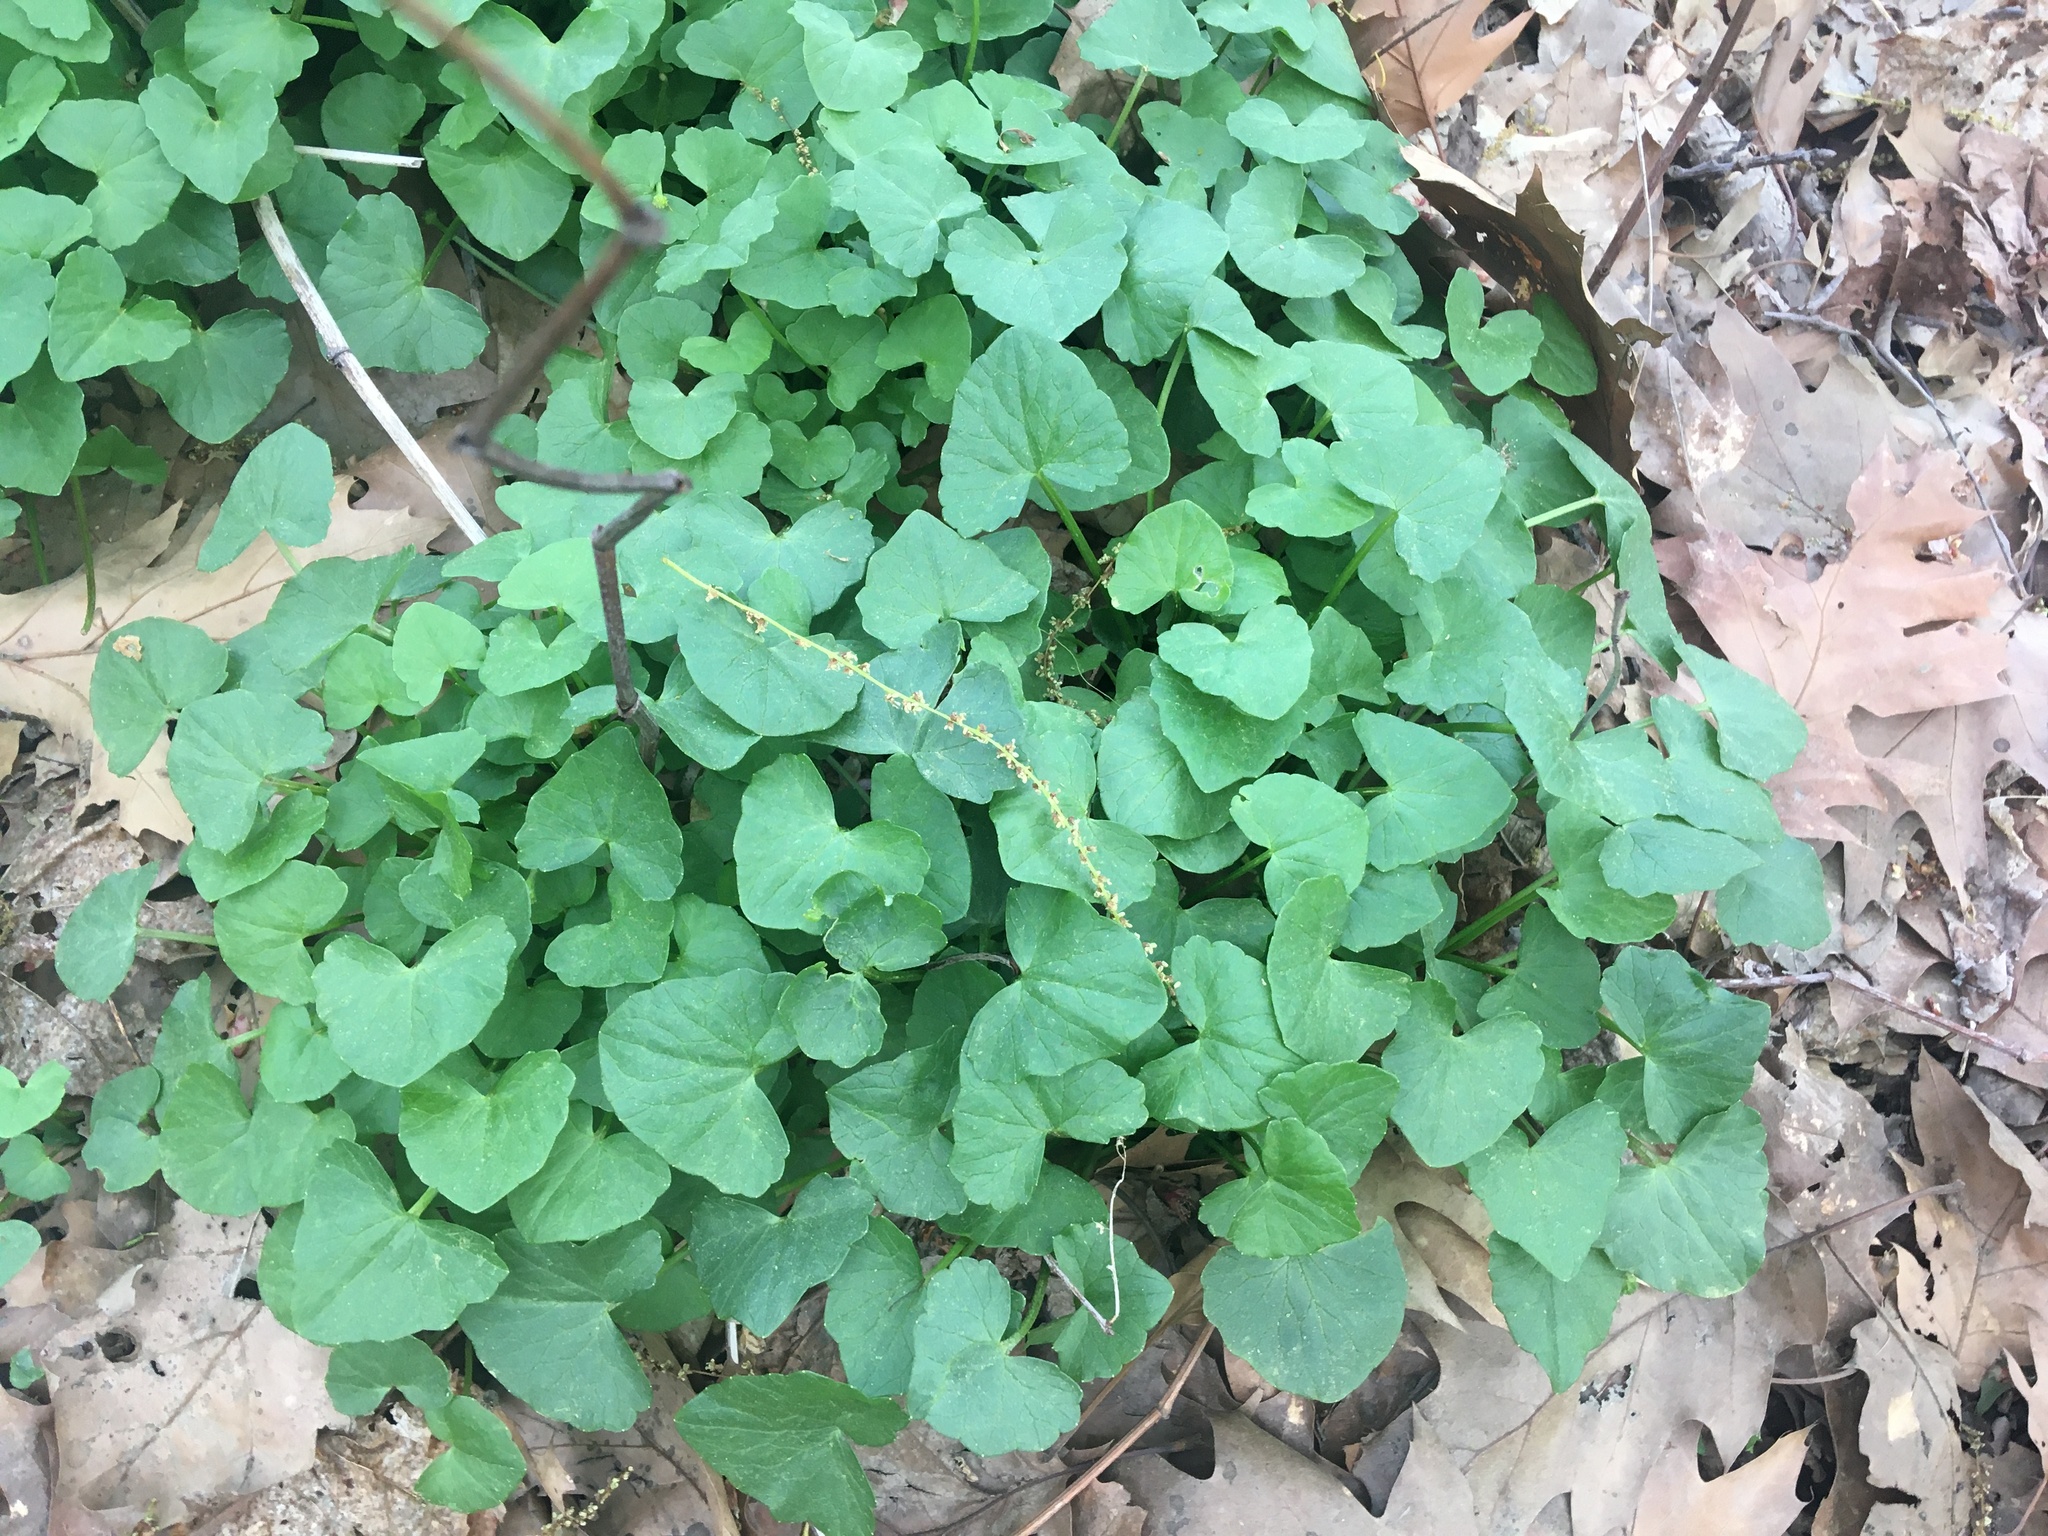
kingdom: Plantae
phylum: Tracheophyta
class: Magnoliopsida
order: Ranunculales
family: Ranunculaceae
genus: Ficaria
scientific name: Ficaria verna
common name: Lesser celandine
